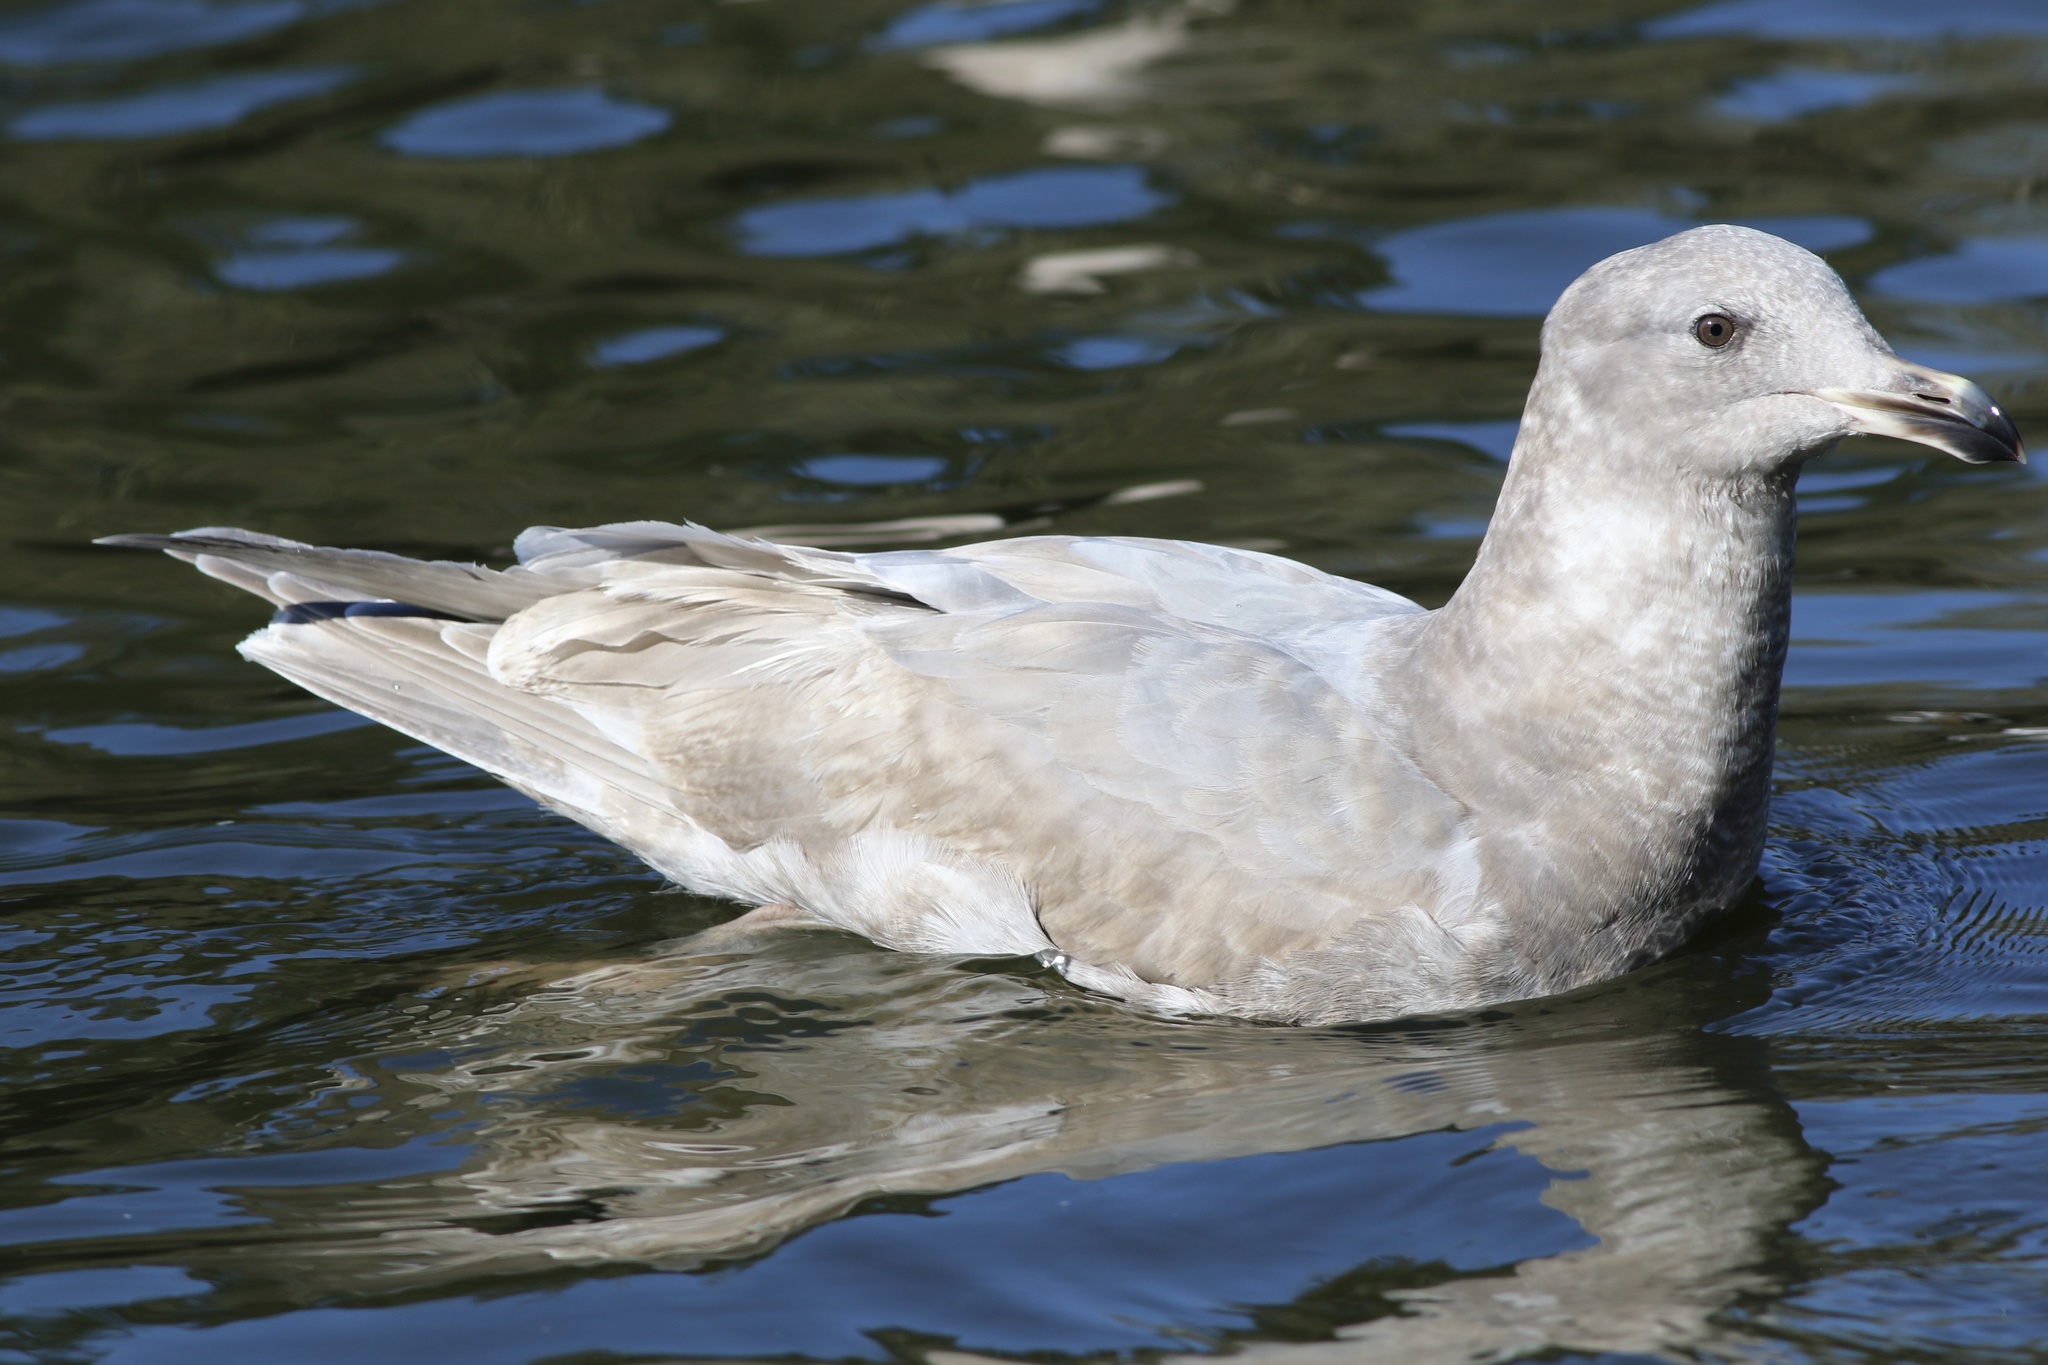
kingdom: Animalia
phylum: Chordata
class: Aves
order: Charadriiformes
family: Laridae
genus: Larus
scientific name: Larus glaucescens
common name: Glaucous-winged gull
